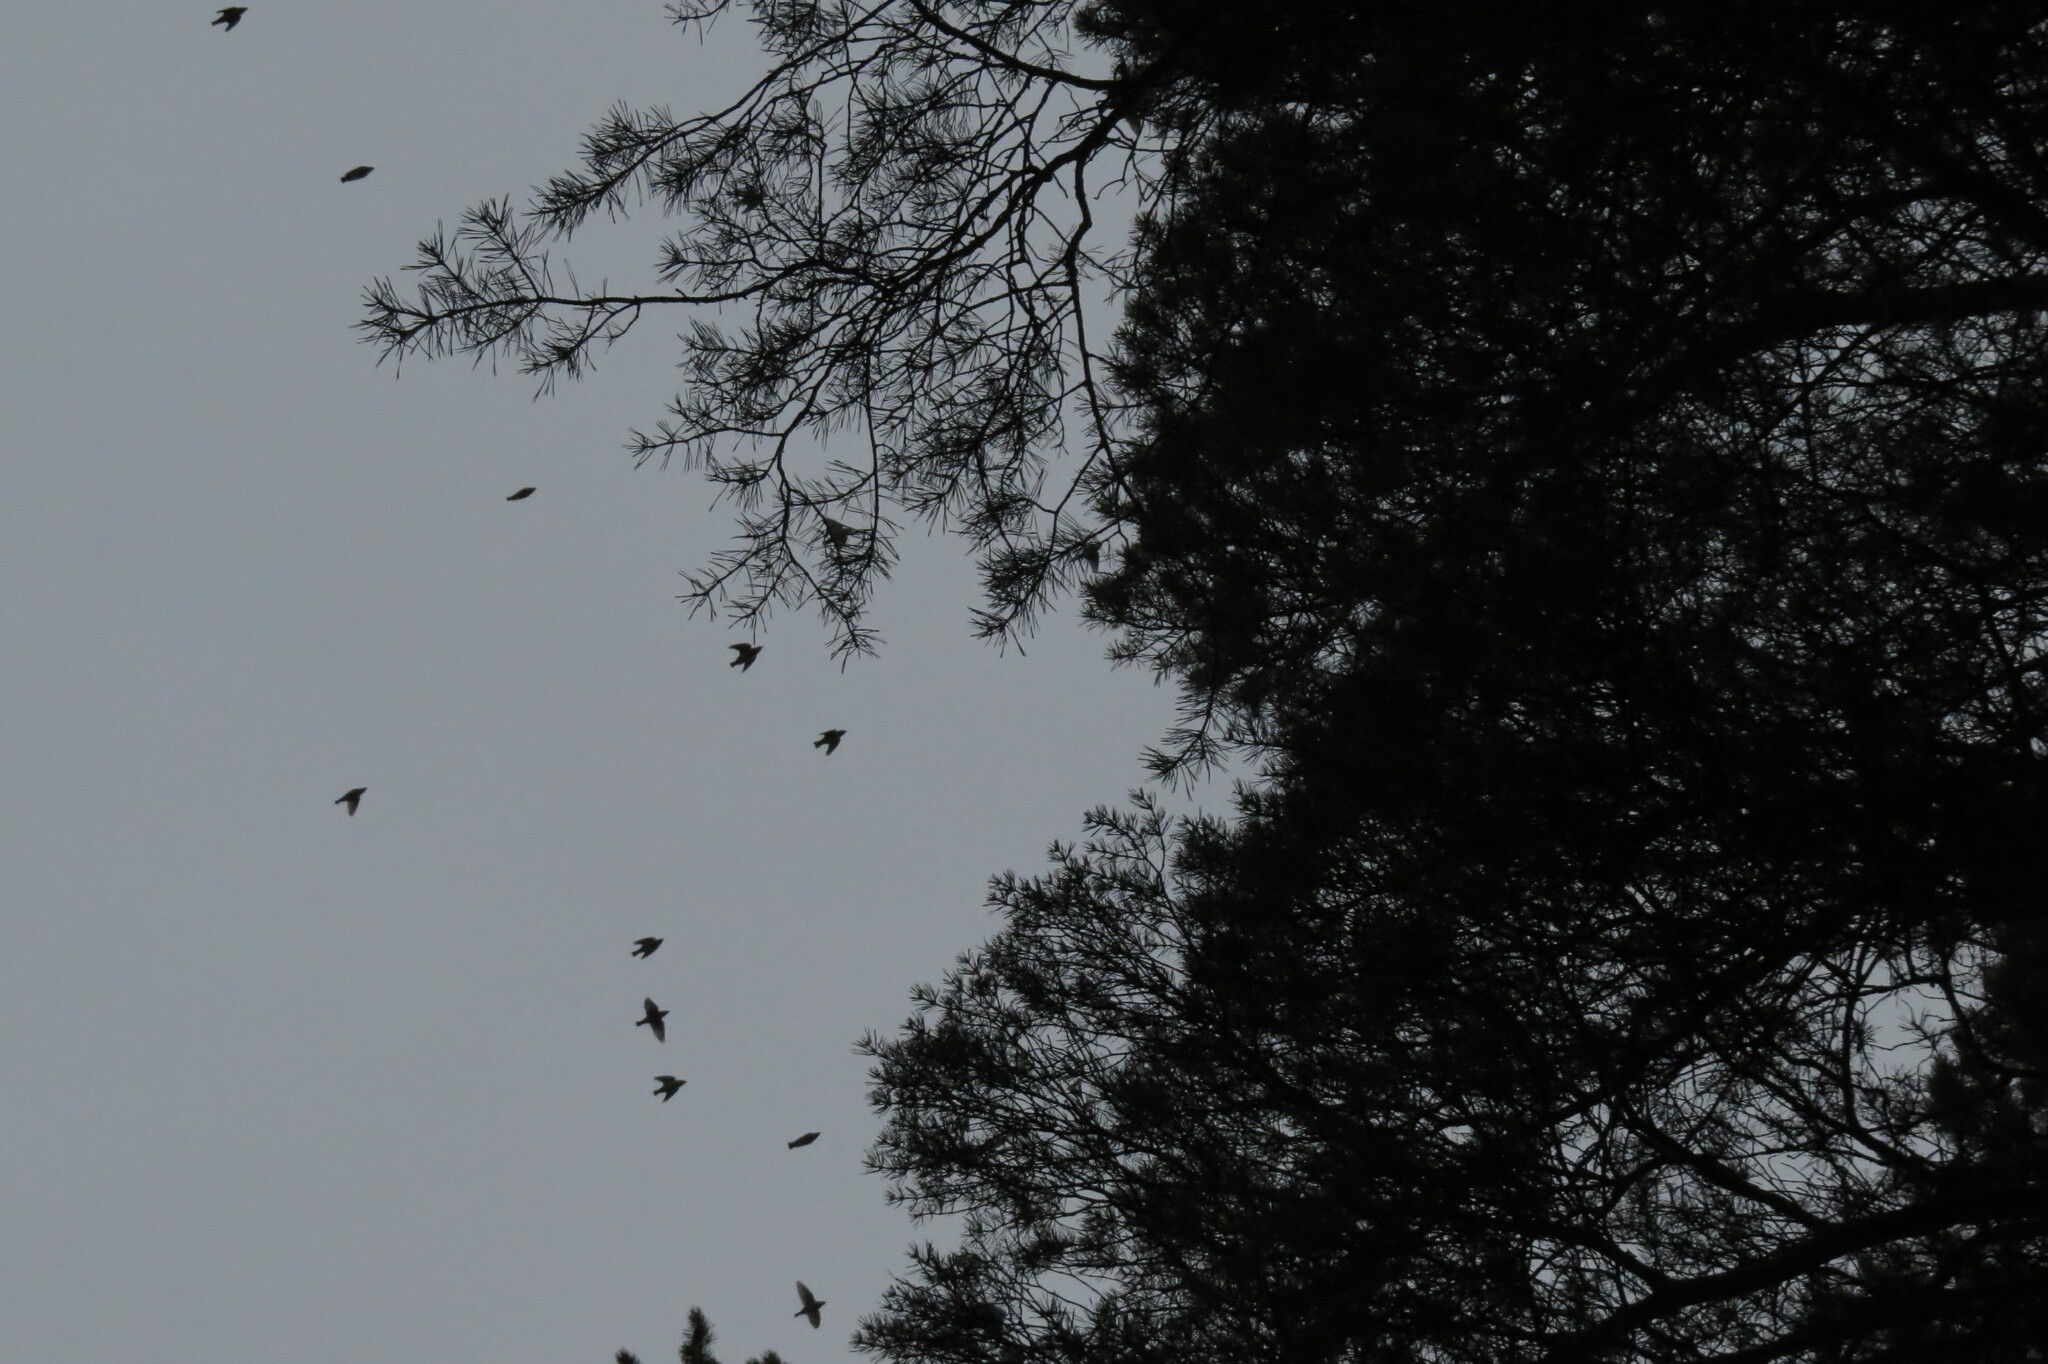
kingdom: Animalia
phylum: Chordata
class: Aves
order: Passeriformes
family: Bombycillidae
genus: Bombycilla
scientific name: Bombycilla garrulus
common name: Bohemian waxwing
